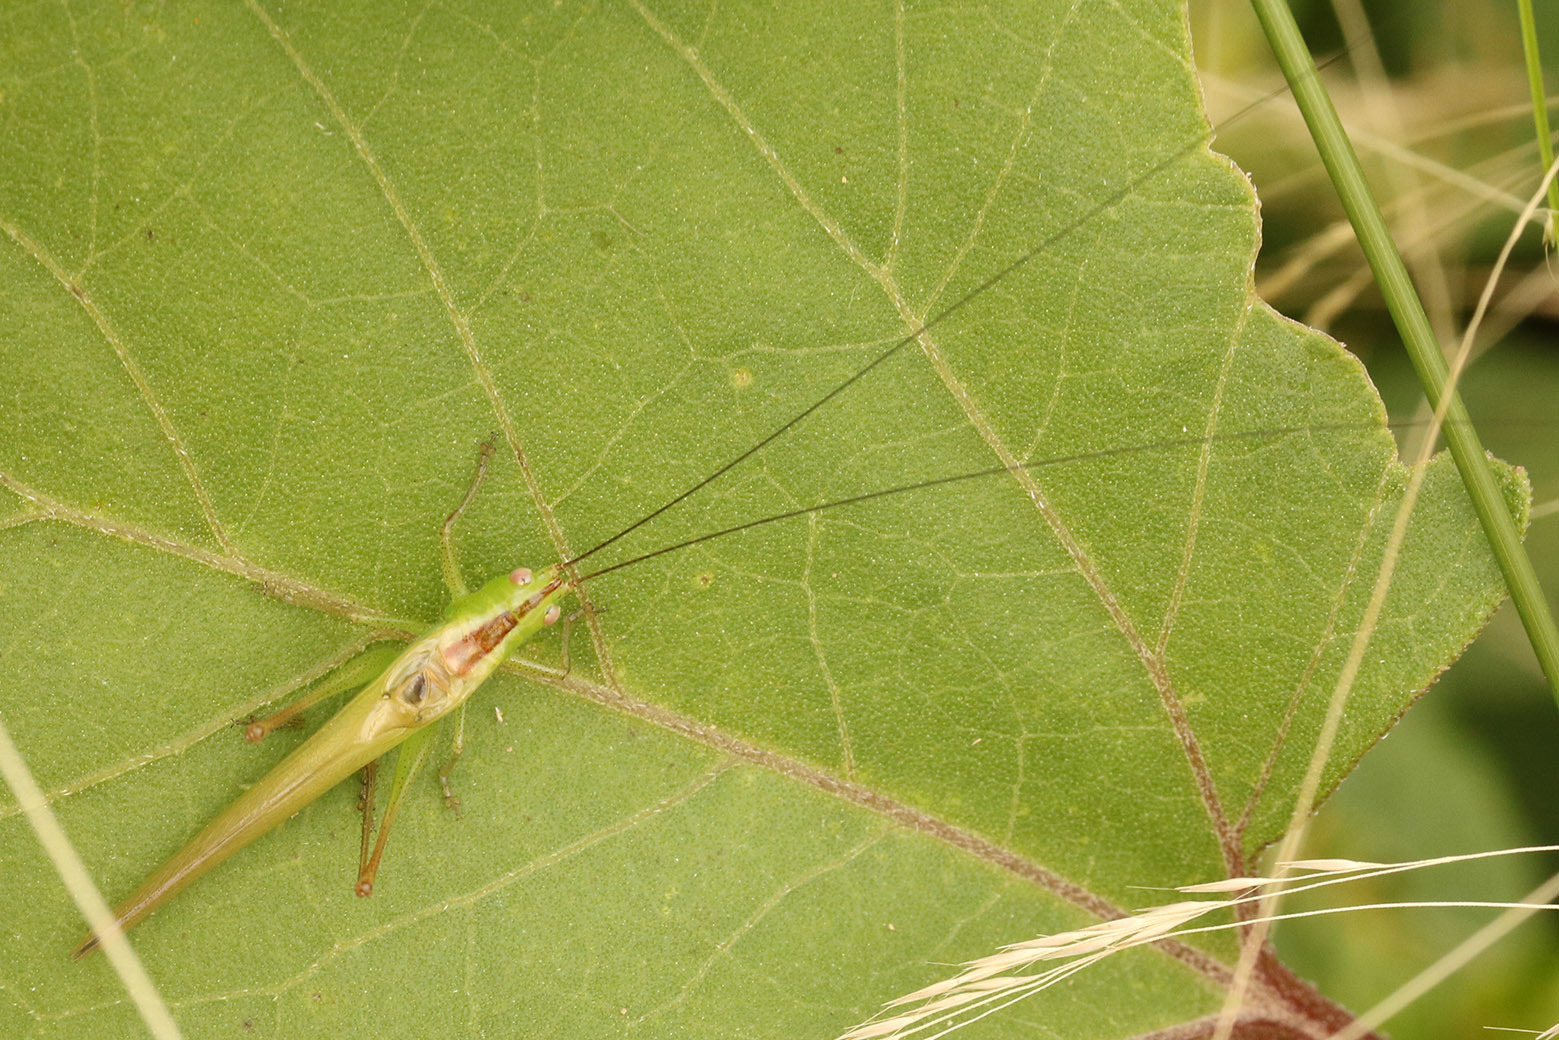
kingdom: Animalia
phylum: Arthropoda
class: Insecta
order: Orthoptera
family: Tettigoniidae
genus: Conocephalus
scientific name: Conocephalus longipes
